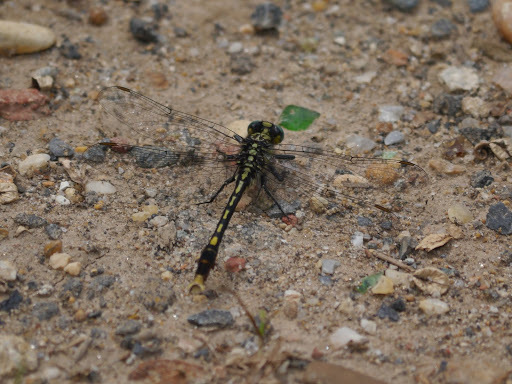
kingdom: Animalia
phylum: Arthropoda
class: Insecta
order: Odonata
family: Gomphidae
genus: Arigomphus
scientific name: Arigomphus villosipes
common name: Unicorn clubtail
